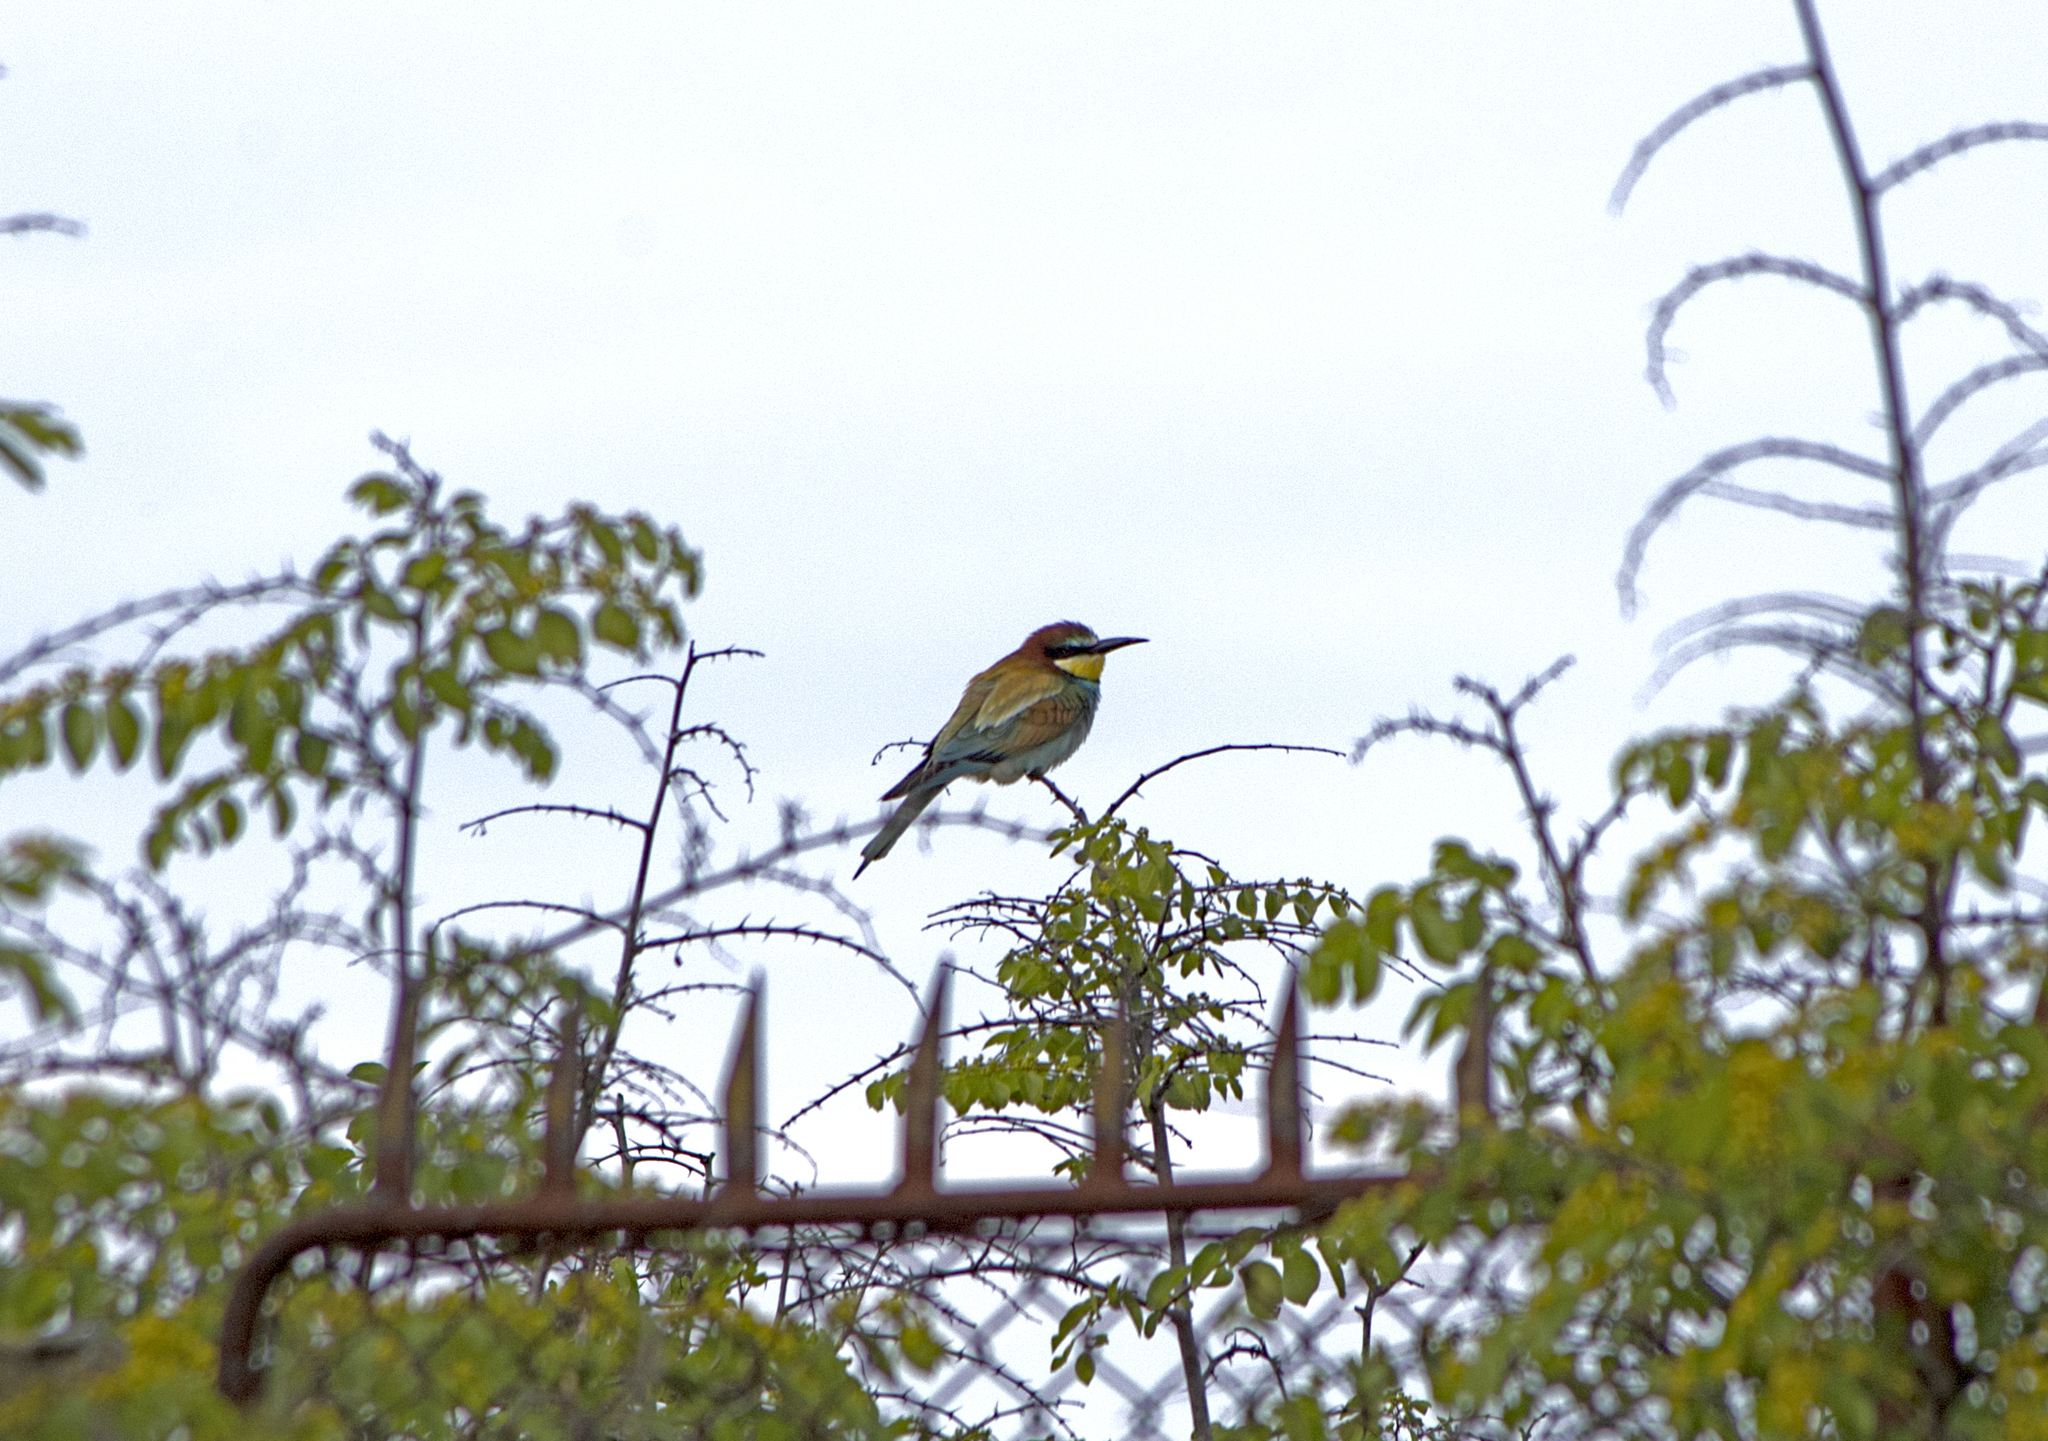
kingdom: Animalia
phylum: Chordata
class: Aves
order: Coraciiformes
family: Meropidae
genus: Merops
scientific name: Merops apiaster
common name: European bee-eater
